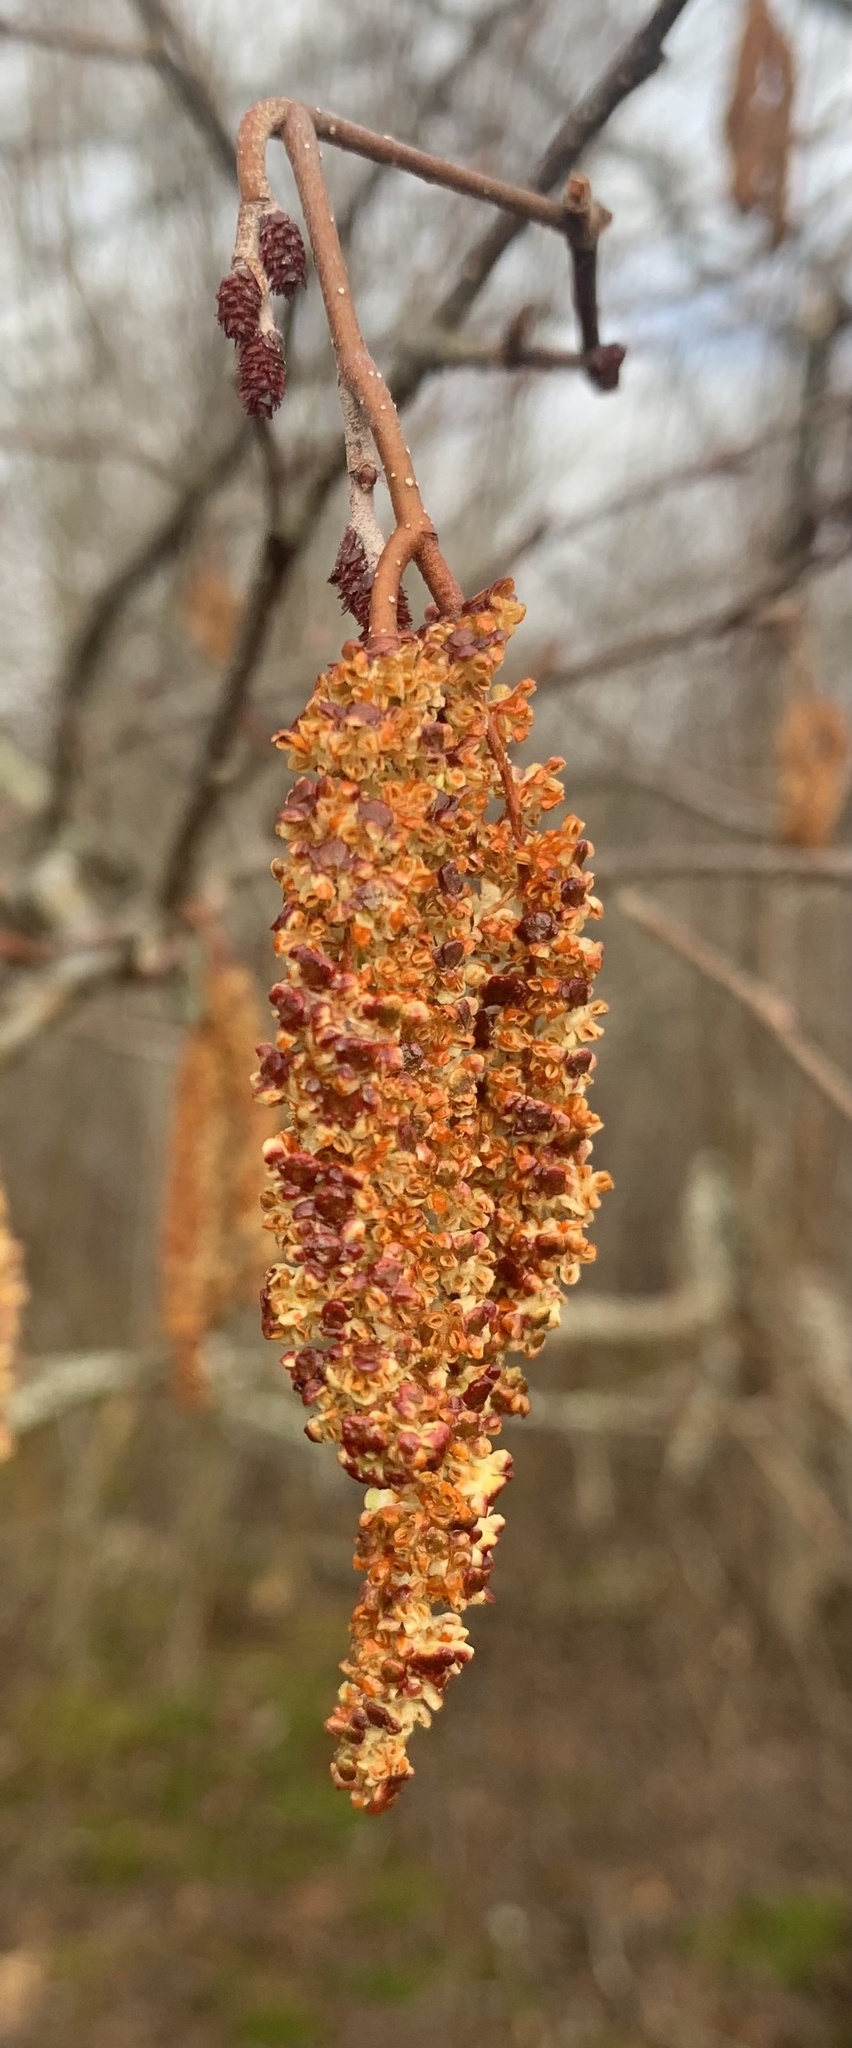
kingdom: Plantae
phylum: Tracheophyta
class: Magnoliopsida
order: Fagales
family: Betulaceae
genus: Alnus
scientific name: Alnus incana
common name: Grey alder
